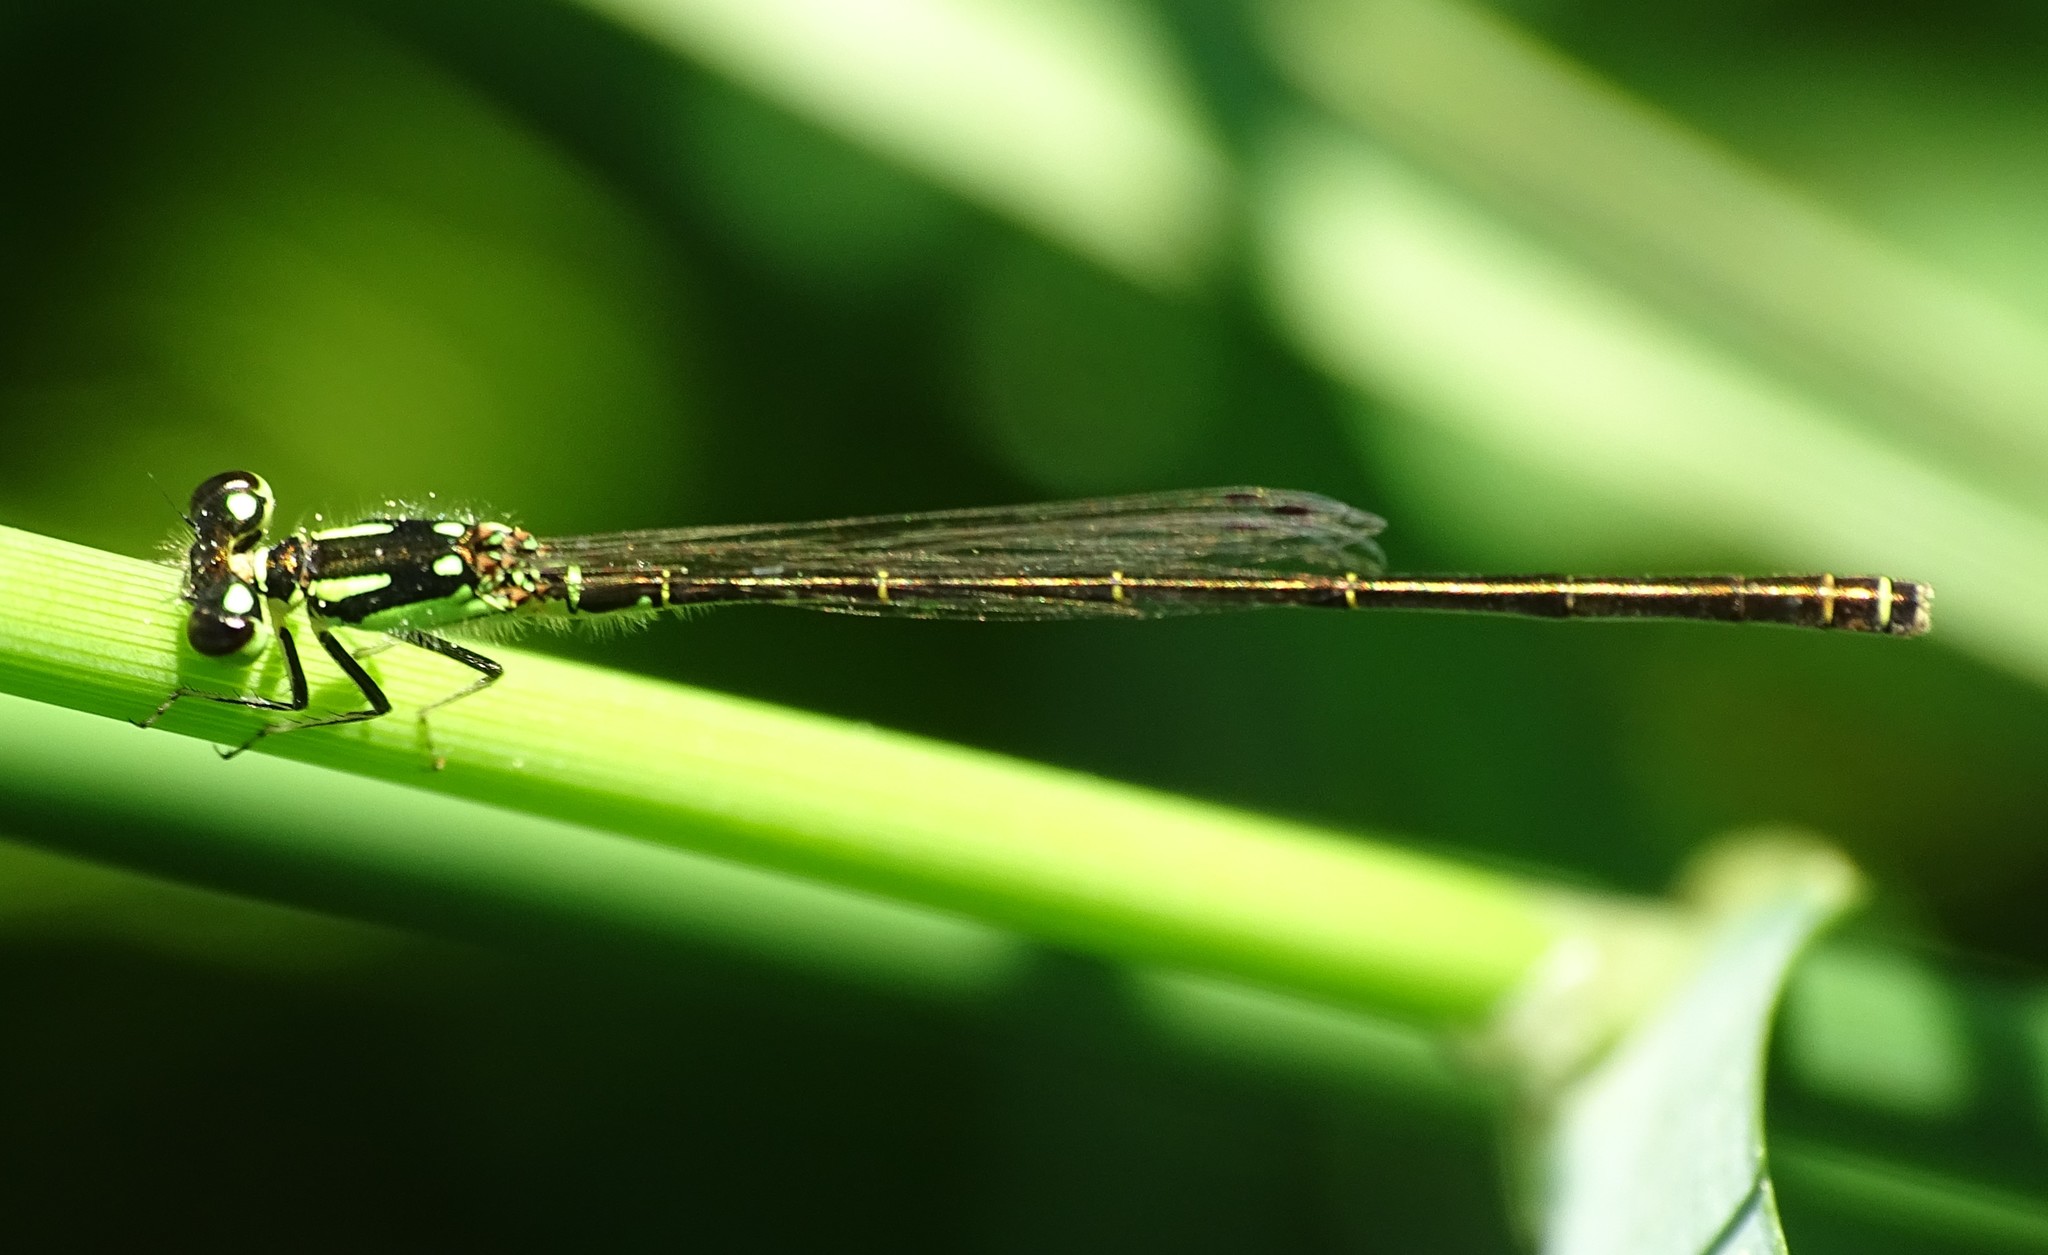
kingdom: Animalia
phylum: Arthropoda
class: Insecta
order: Odonata
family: Coenagrionidae
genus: Ischnura
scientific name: Ischnura posita
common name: Fragile forktail
